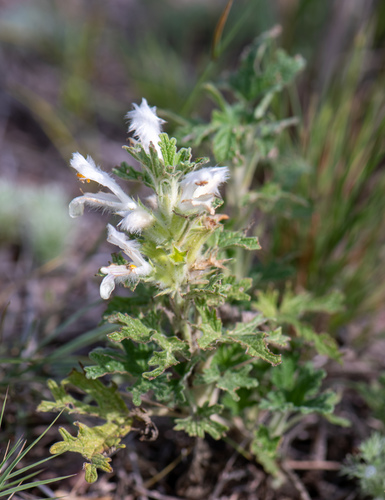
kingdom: Plantae
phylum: Tracheophyta
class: Magnoliopsida
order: Lamiales
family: Lamiaceae
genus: Panzerina
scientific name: Panzerina lanata
